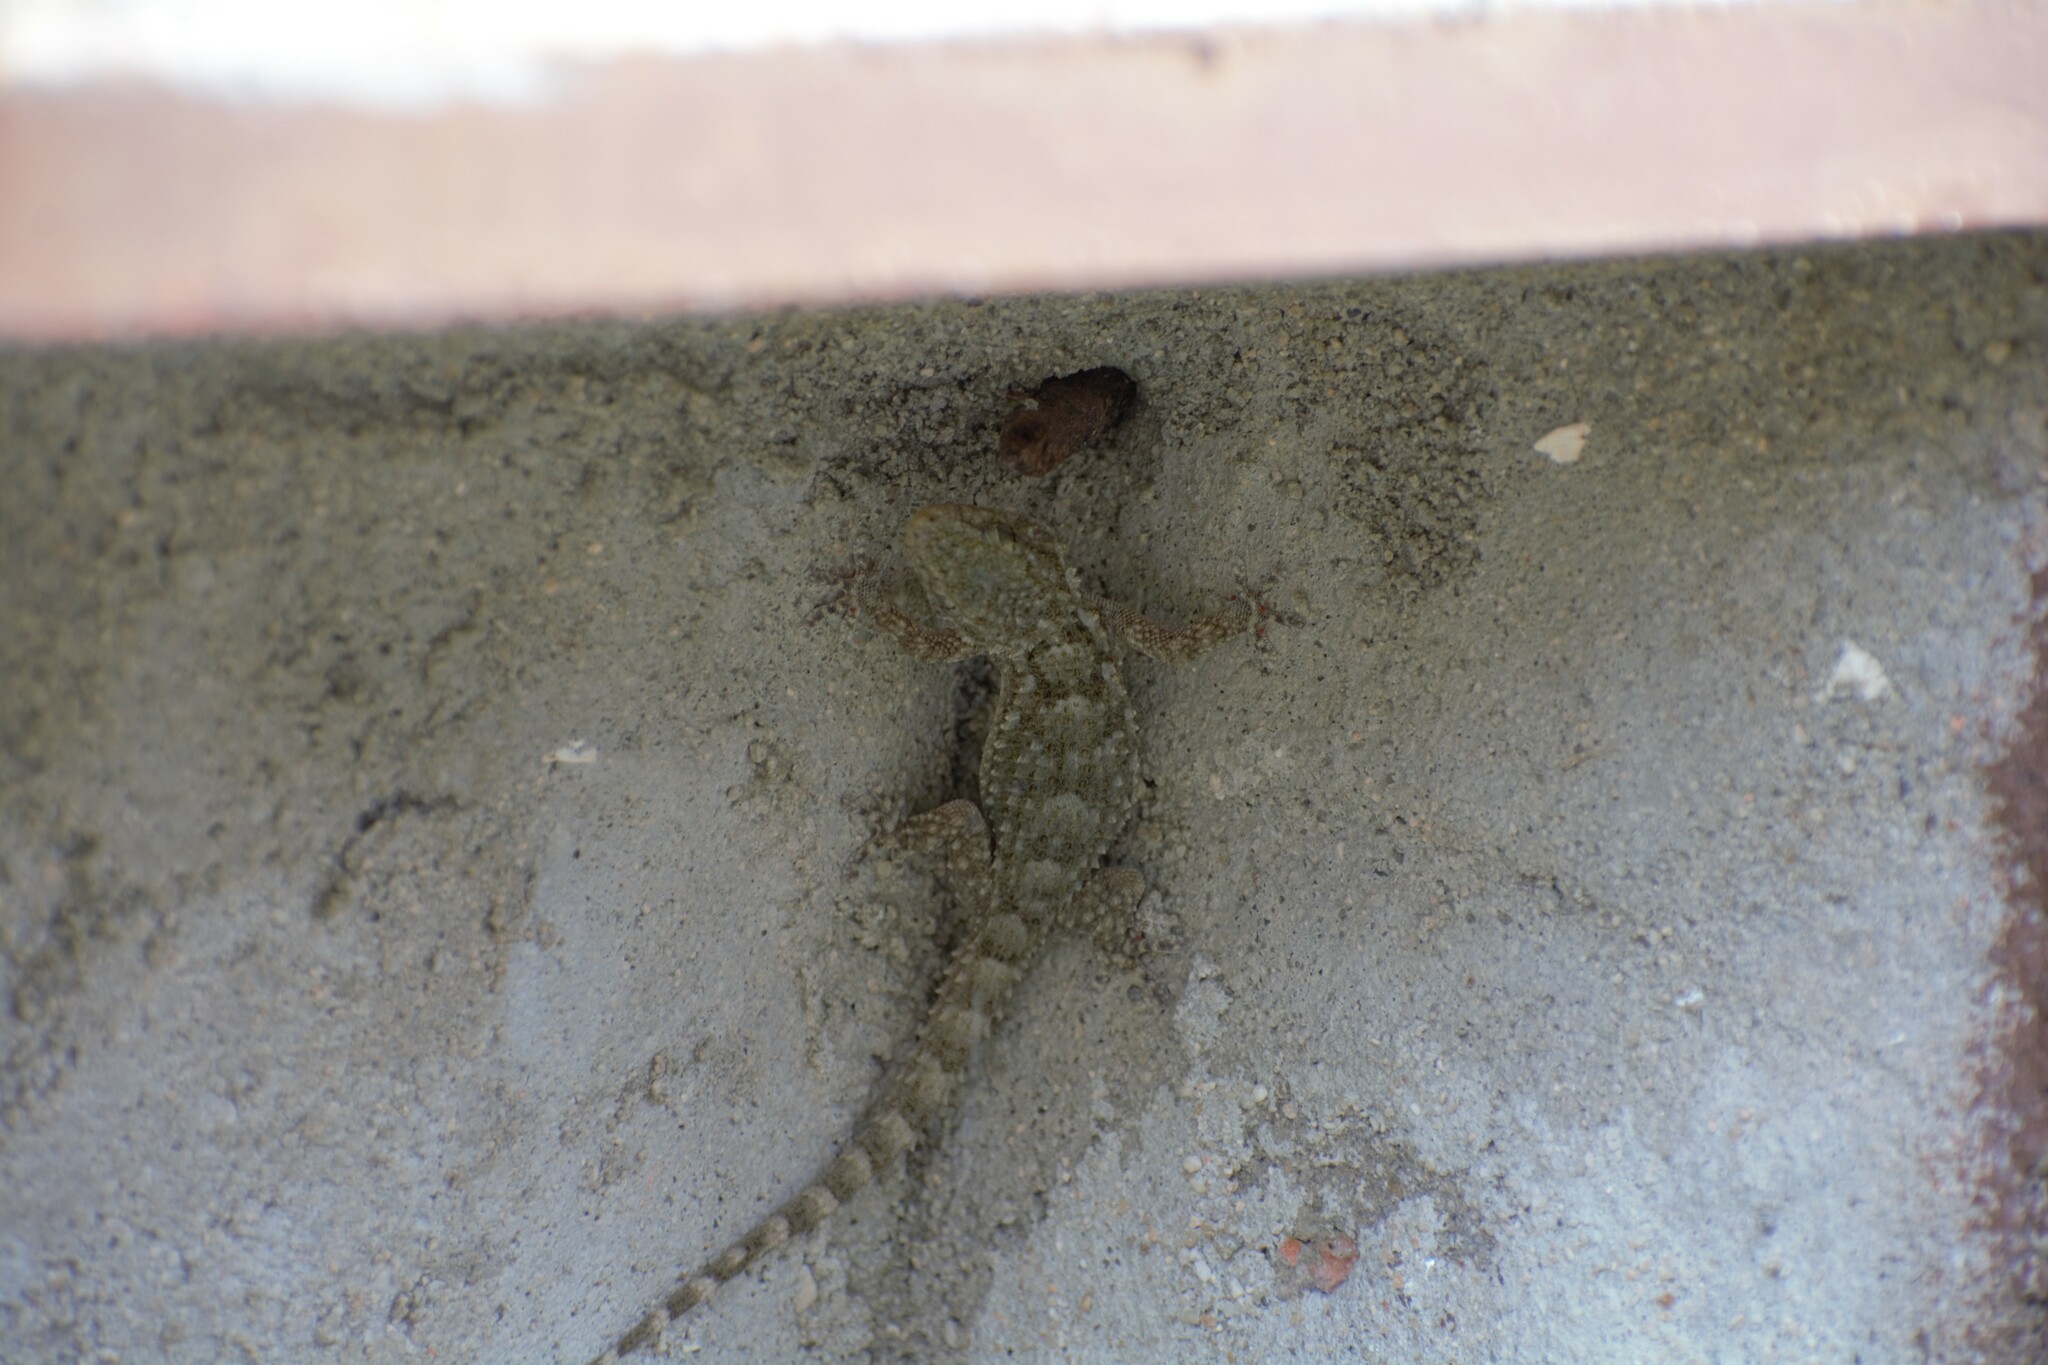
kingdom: Animalia
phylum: Chordata
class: Squamata
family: Phyllodactylidae
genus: Tarentola
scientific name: Tarentola mauritanica
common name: Moorish gecko
